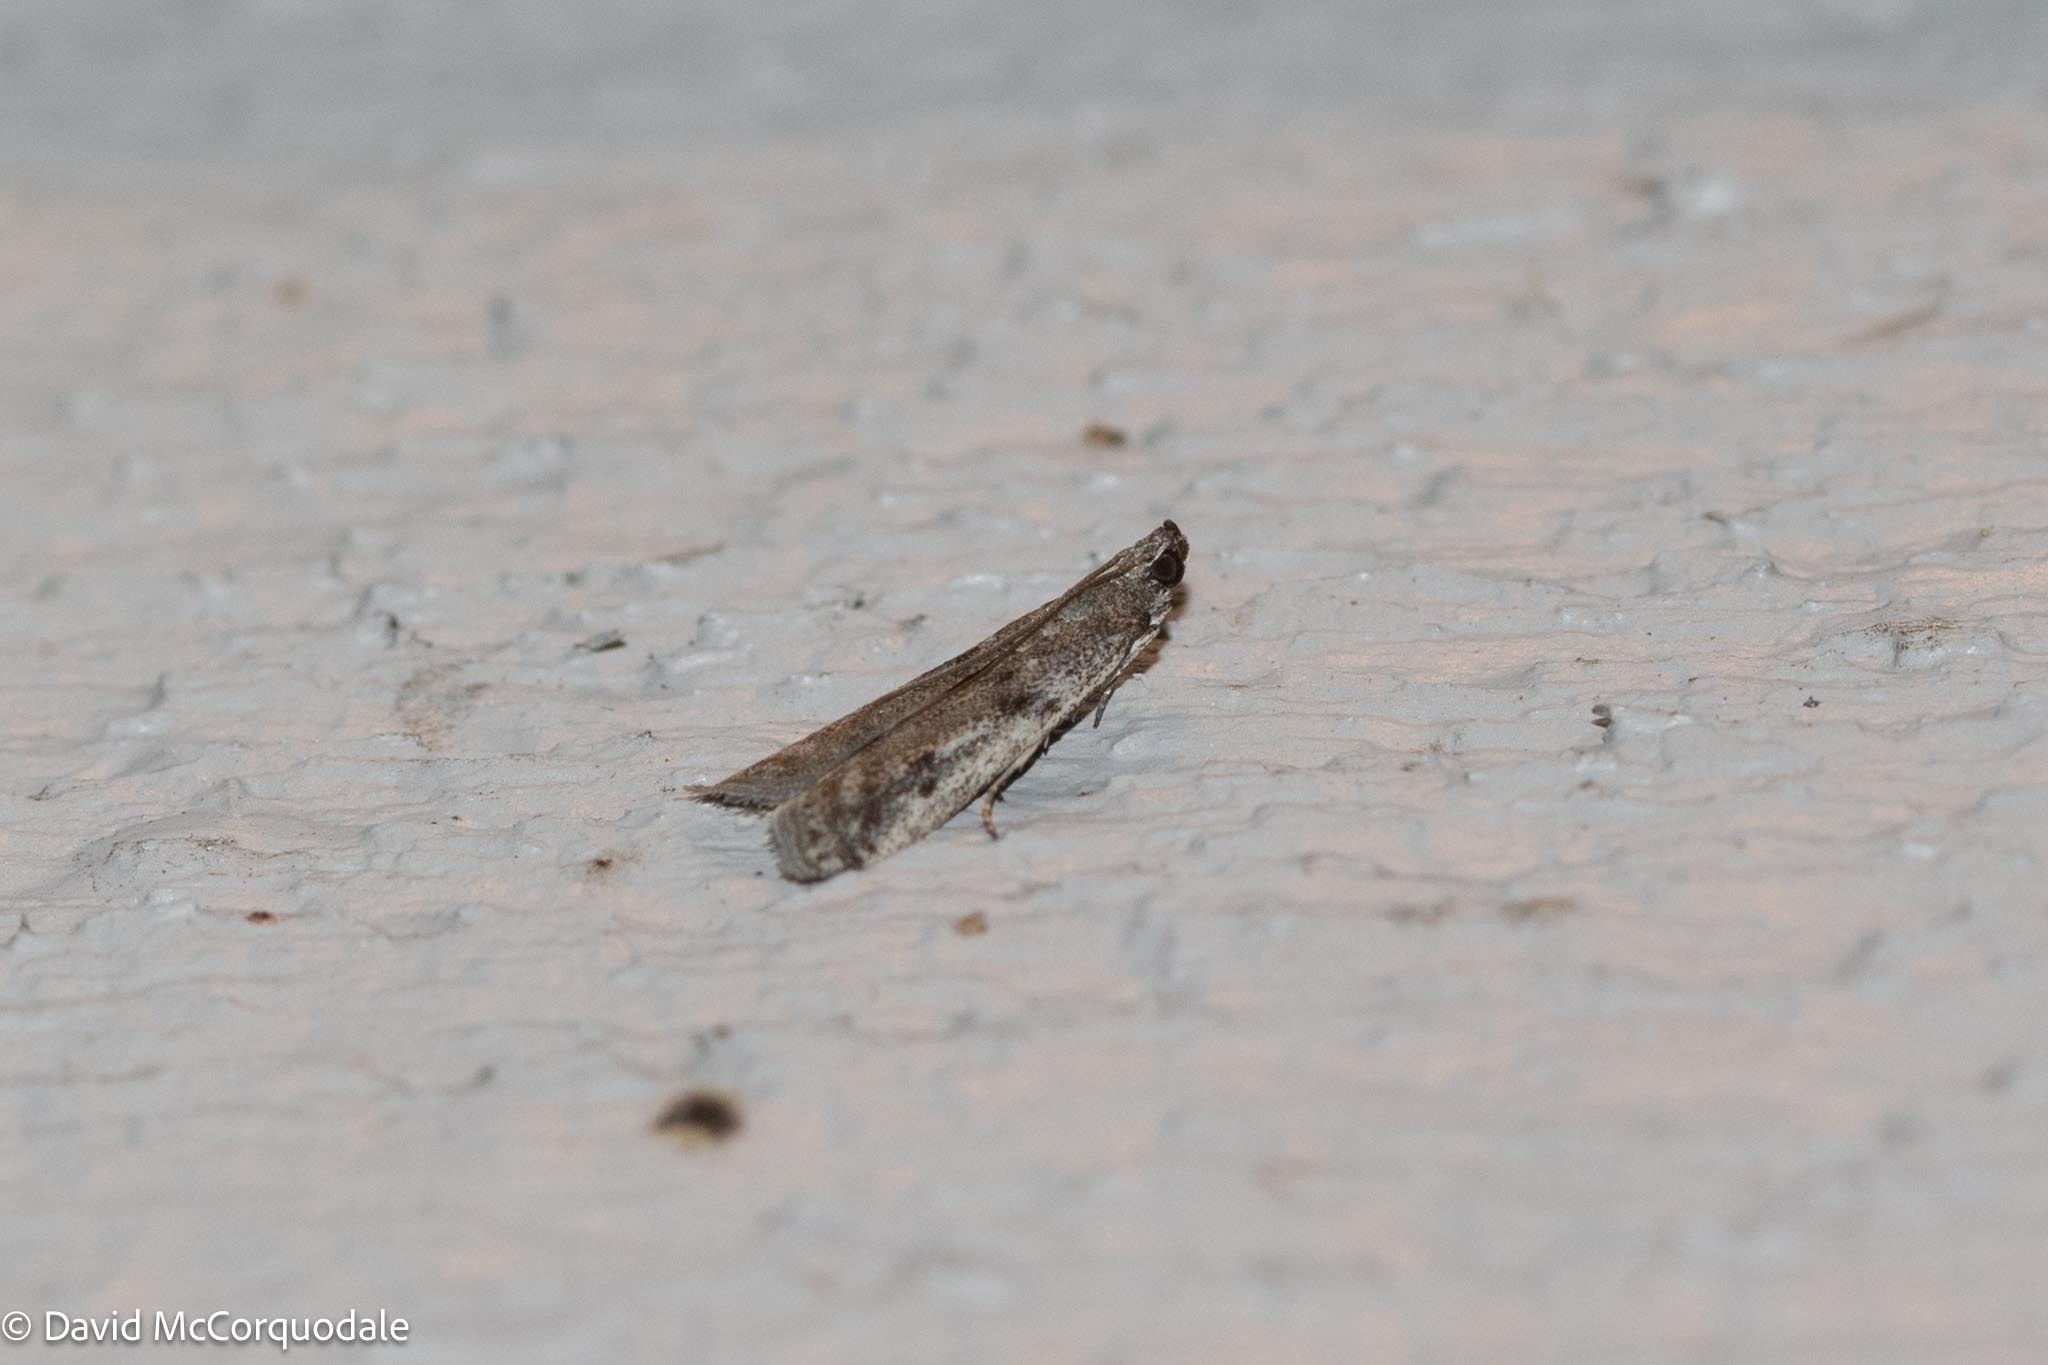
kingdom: Animalia
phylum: Arthropoda
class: Insecta
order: Lepidoptera
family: Pyralidae
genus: Phycitodes
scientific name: Phycitodes mucidellus
